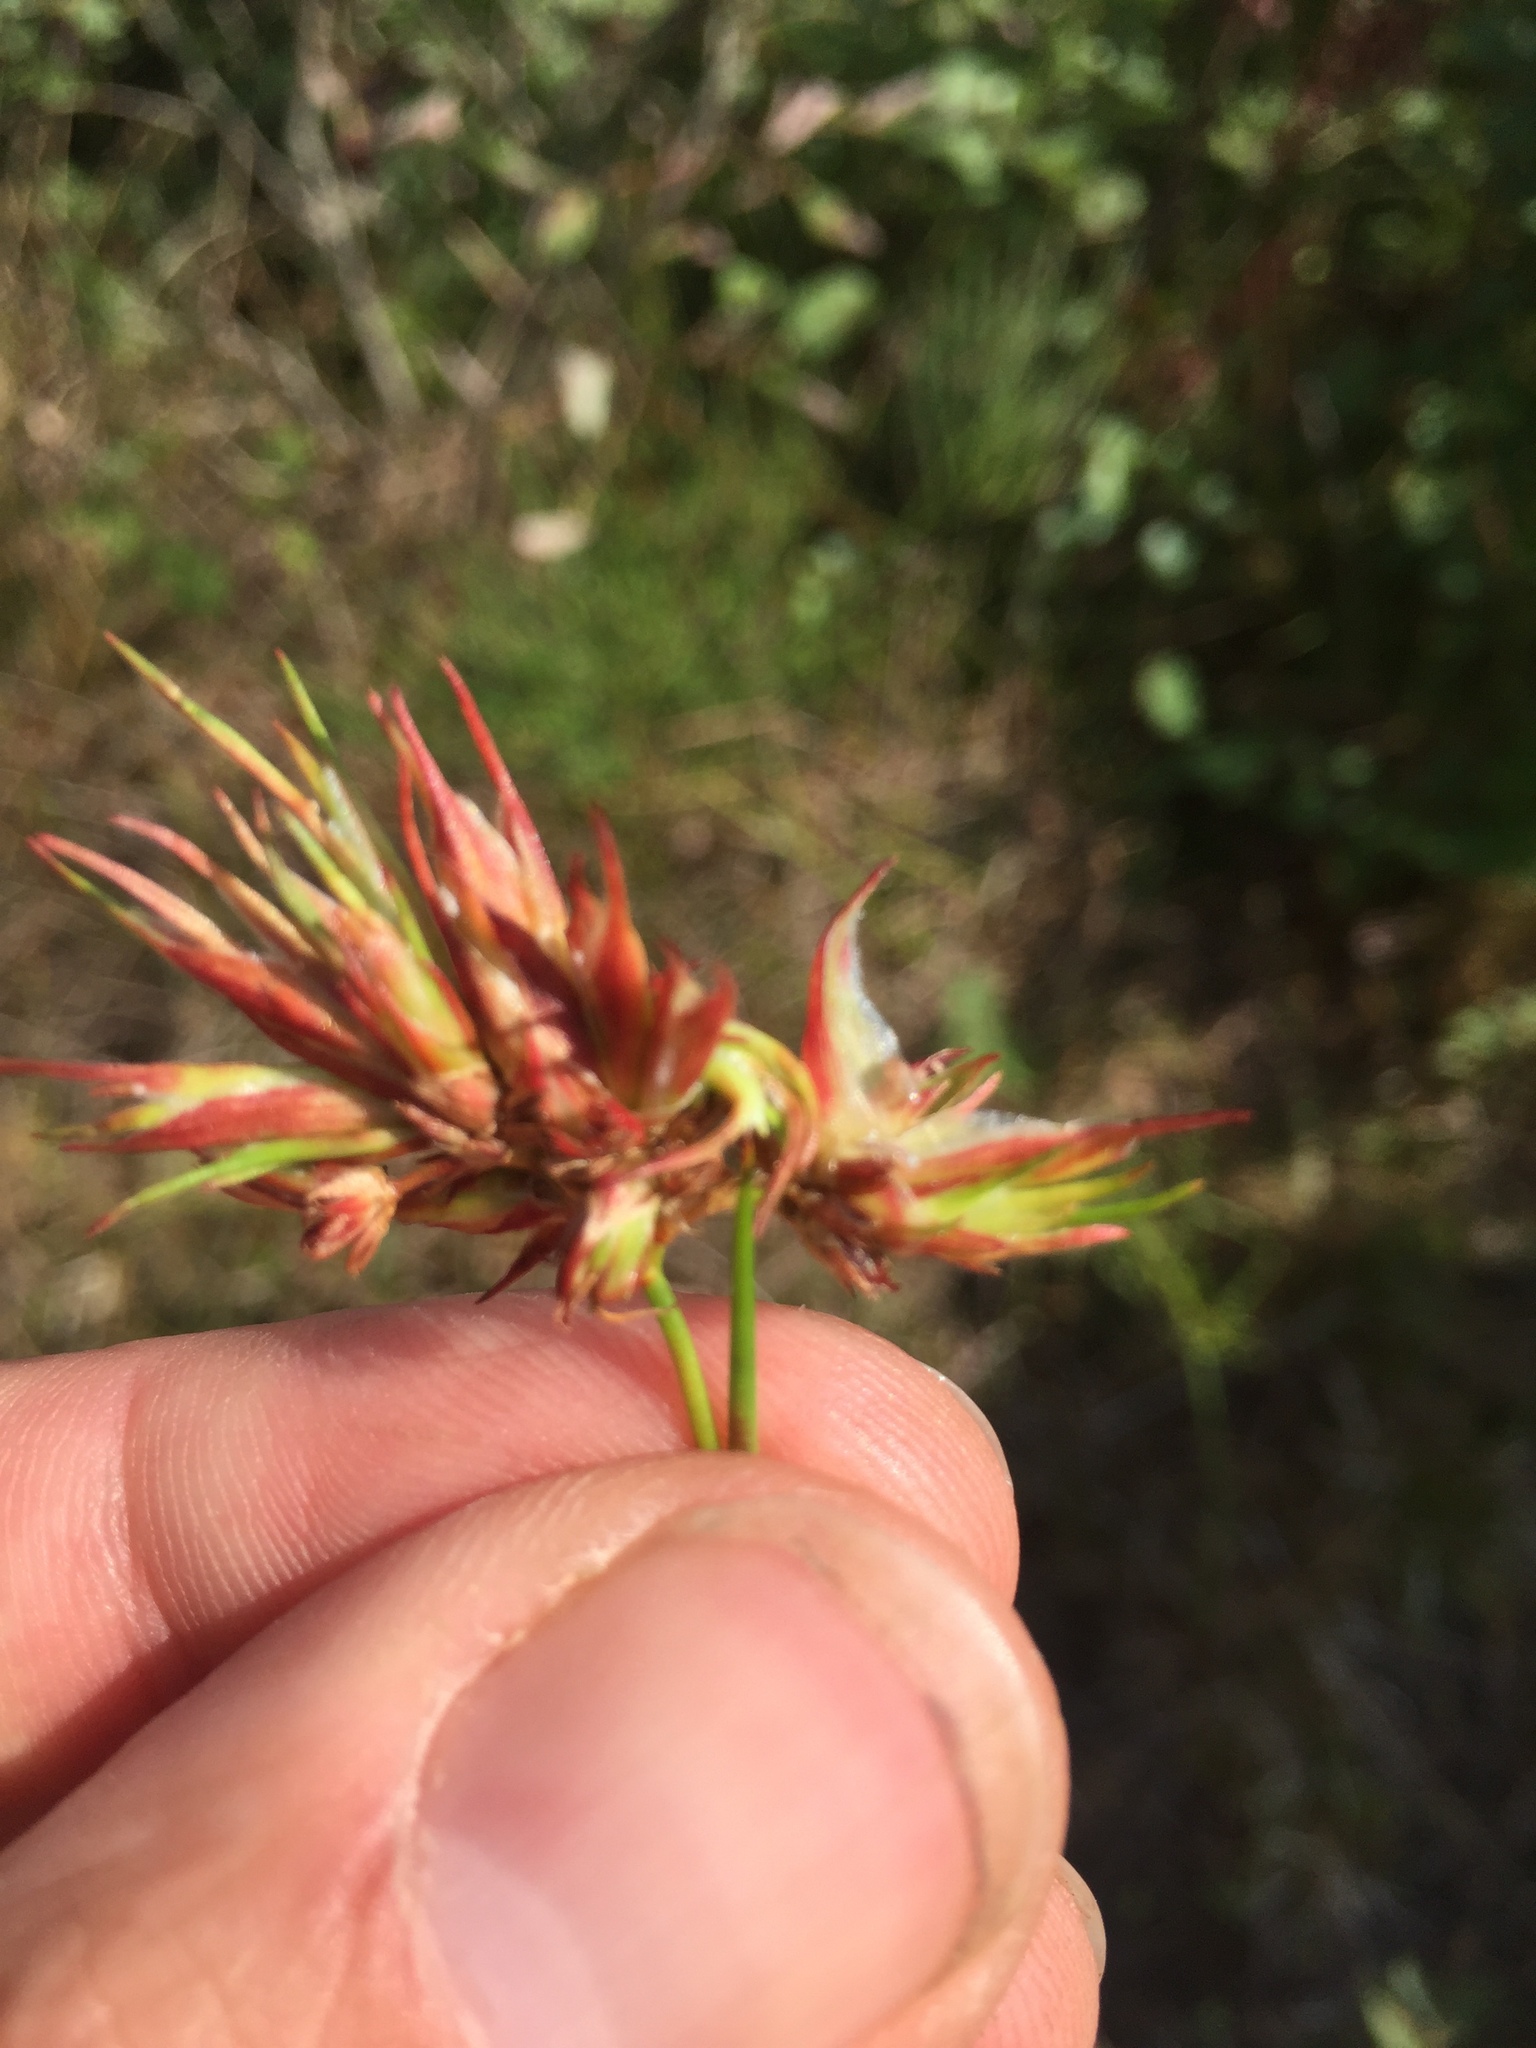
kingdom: Animalia
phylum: Arthropoda
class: Insecta
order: Hemiptera
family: Liviidae
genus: Livia
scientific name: Livia junci
